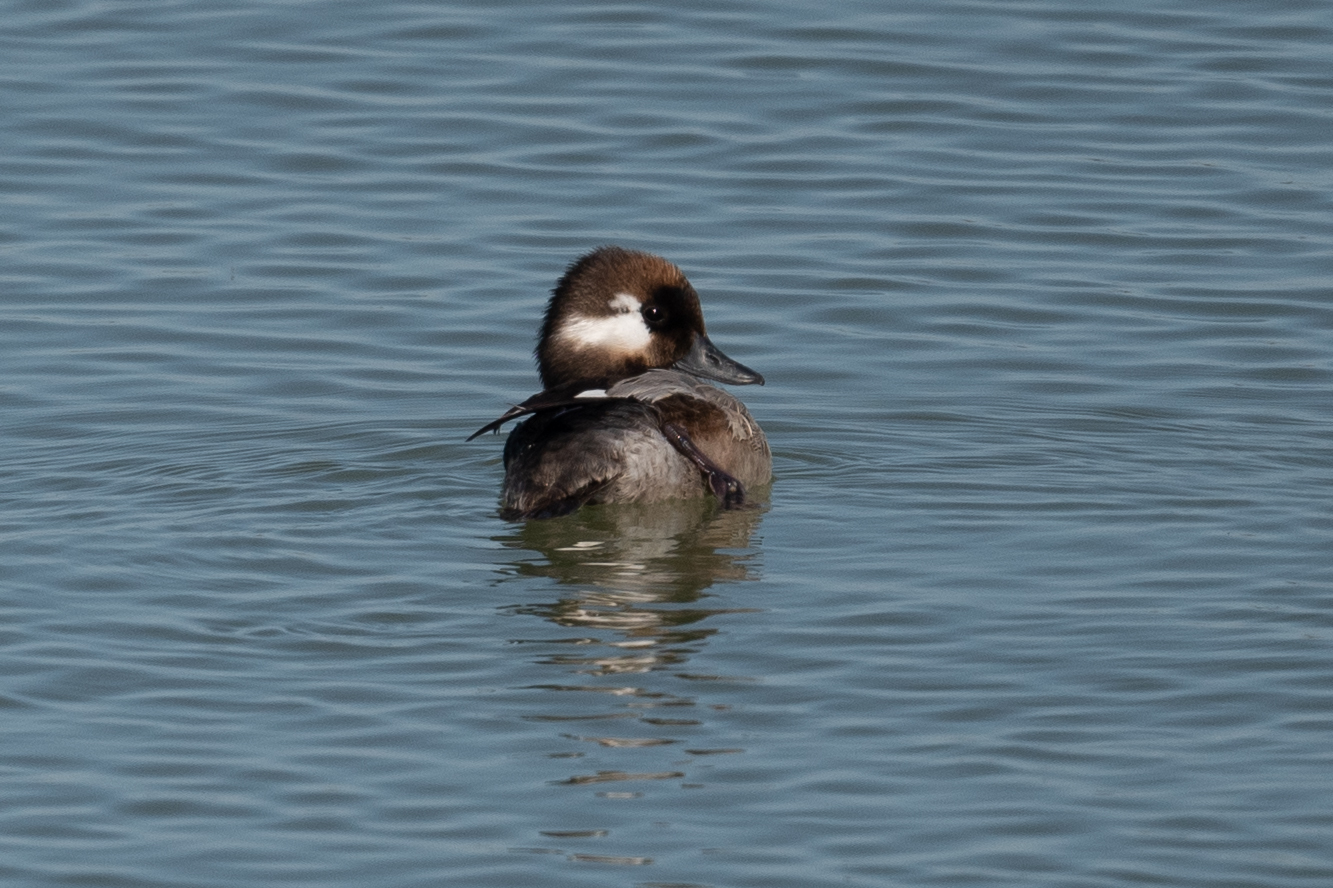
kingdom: Animalia
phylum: Chordata
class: Aves
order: Anseriformes
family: Anatidae
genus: Bucephala
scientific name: Bucephala albeola
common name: Bufflehead
